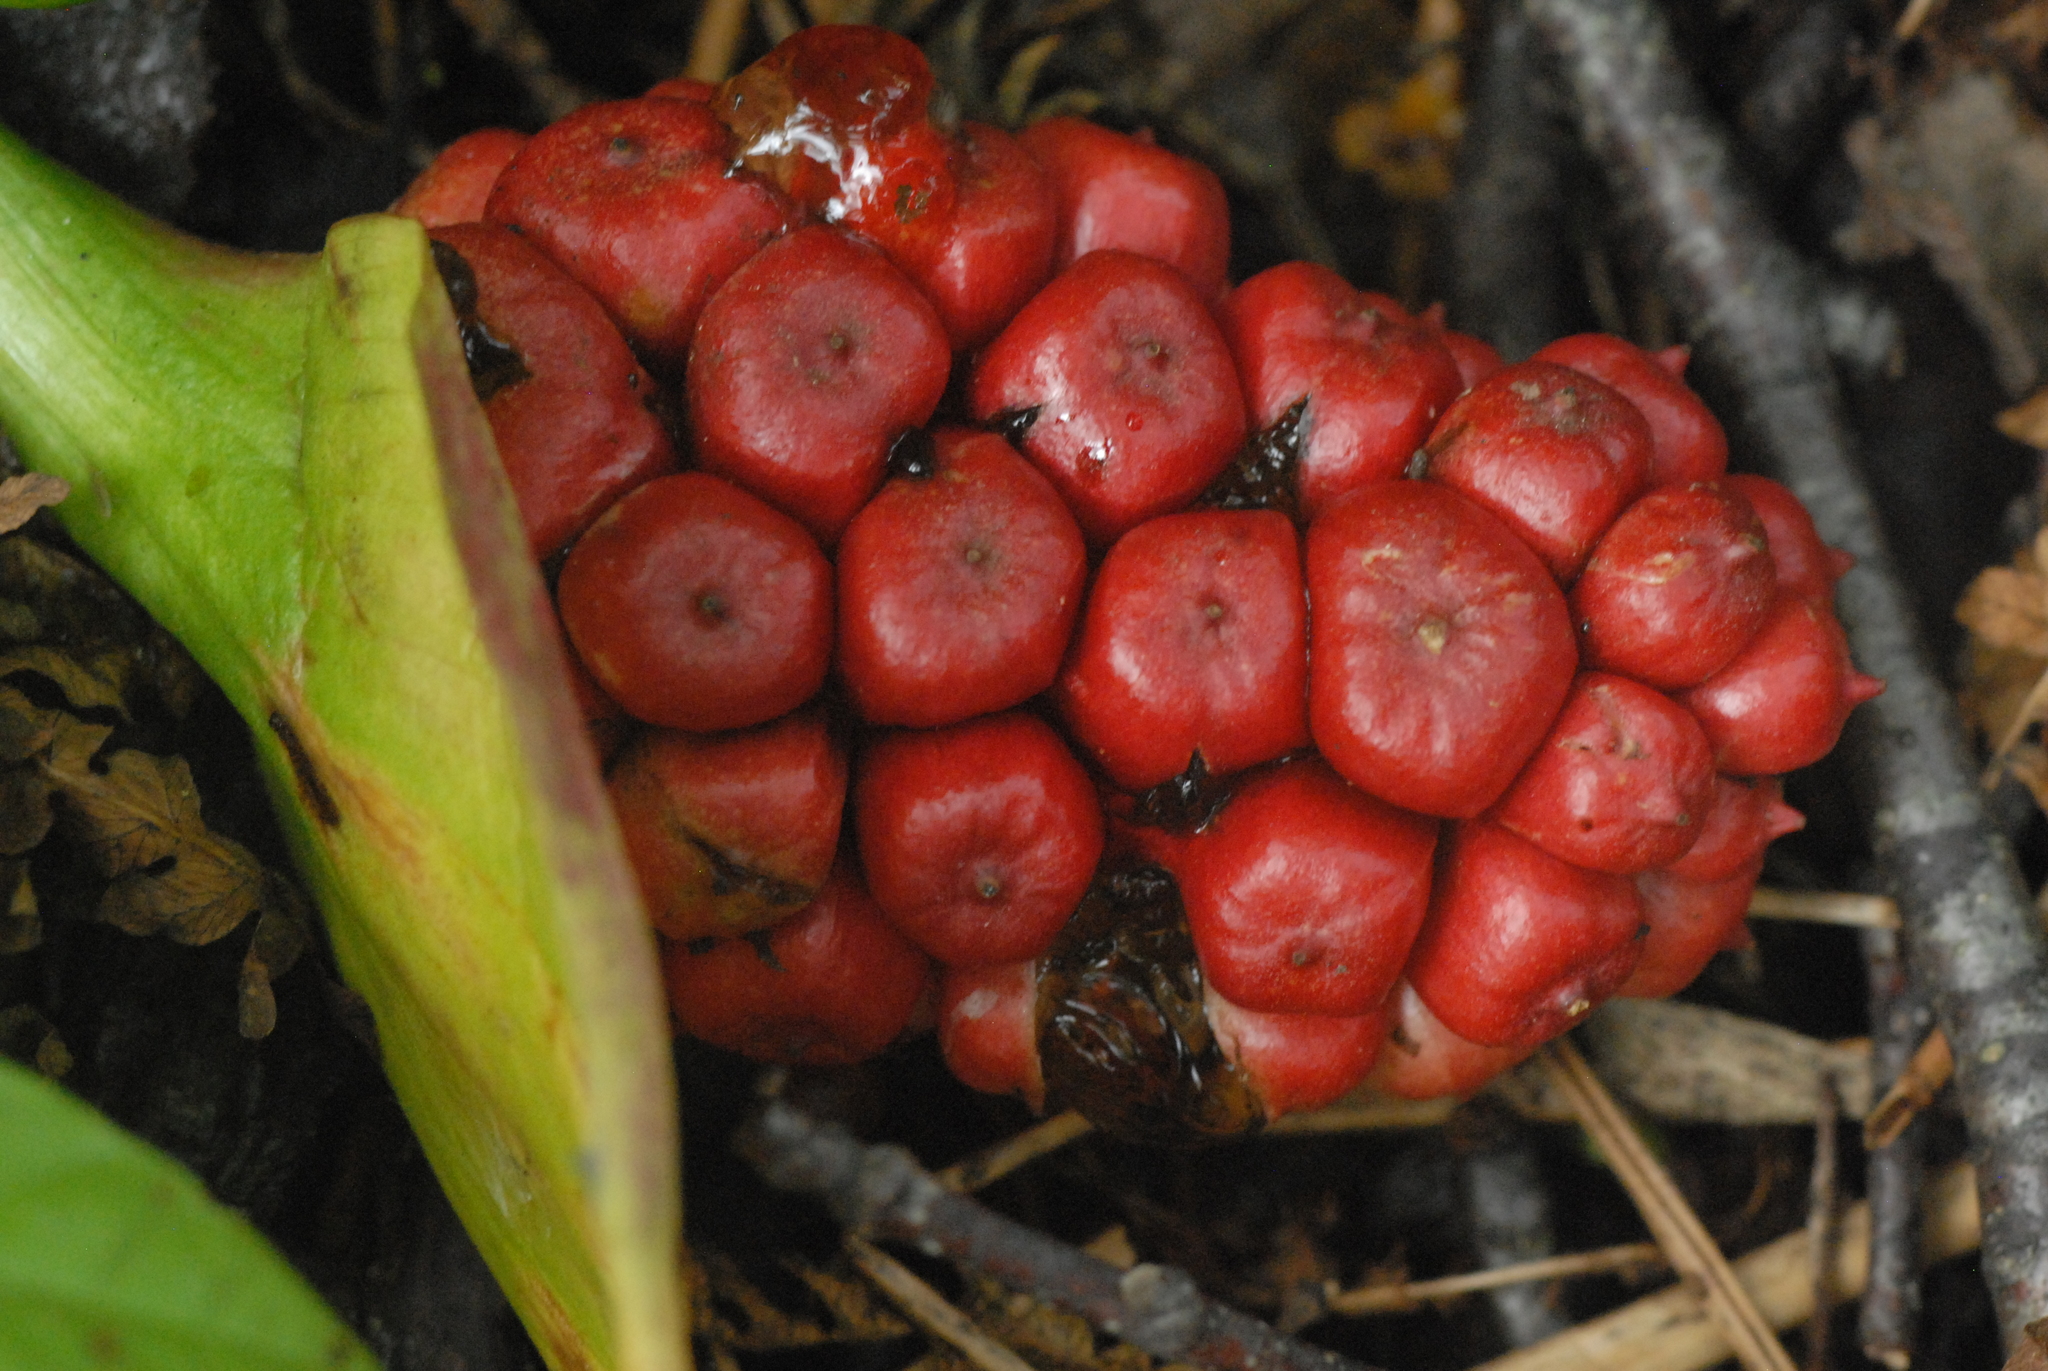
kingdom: Plantae
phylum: Tracheophyta
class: Liliopsida
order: Alismatales
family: Araceae
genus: Calla
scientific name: Calla palustris
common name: Bog arum
